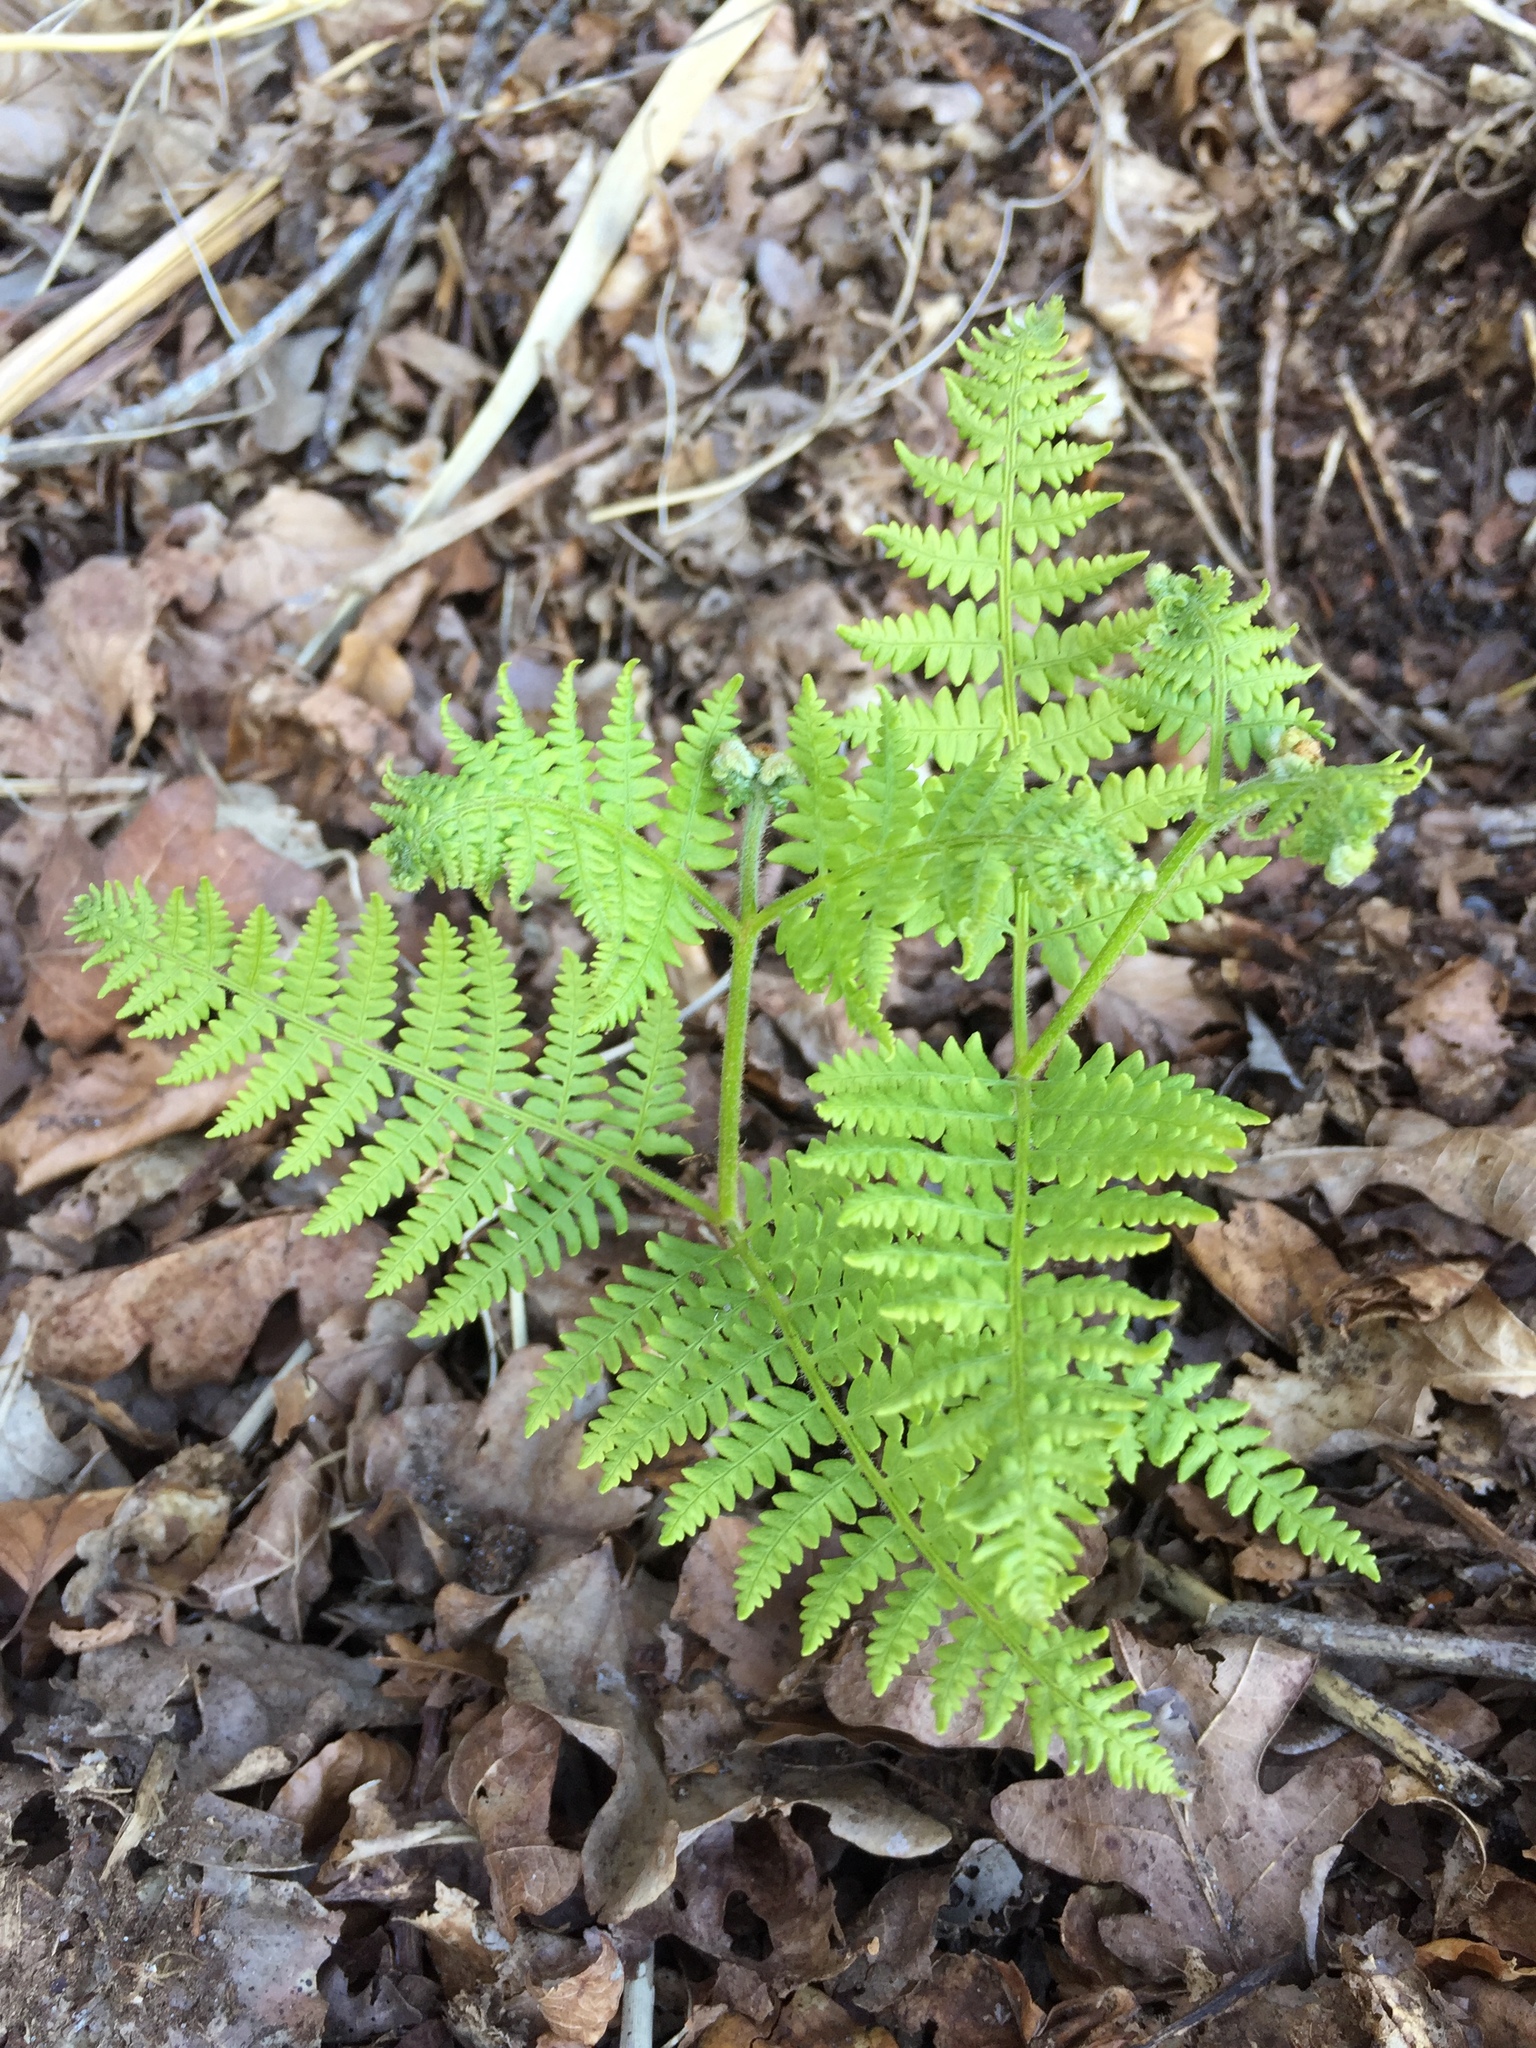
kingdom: Plantae
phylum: Tracheophyta
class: Polypodiopsida
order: Polypodiales
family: Dennstaedtiaceae
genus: Pteridium
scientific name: Pteridium aquilinum
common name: Bracken
